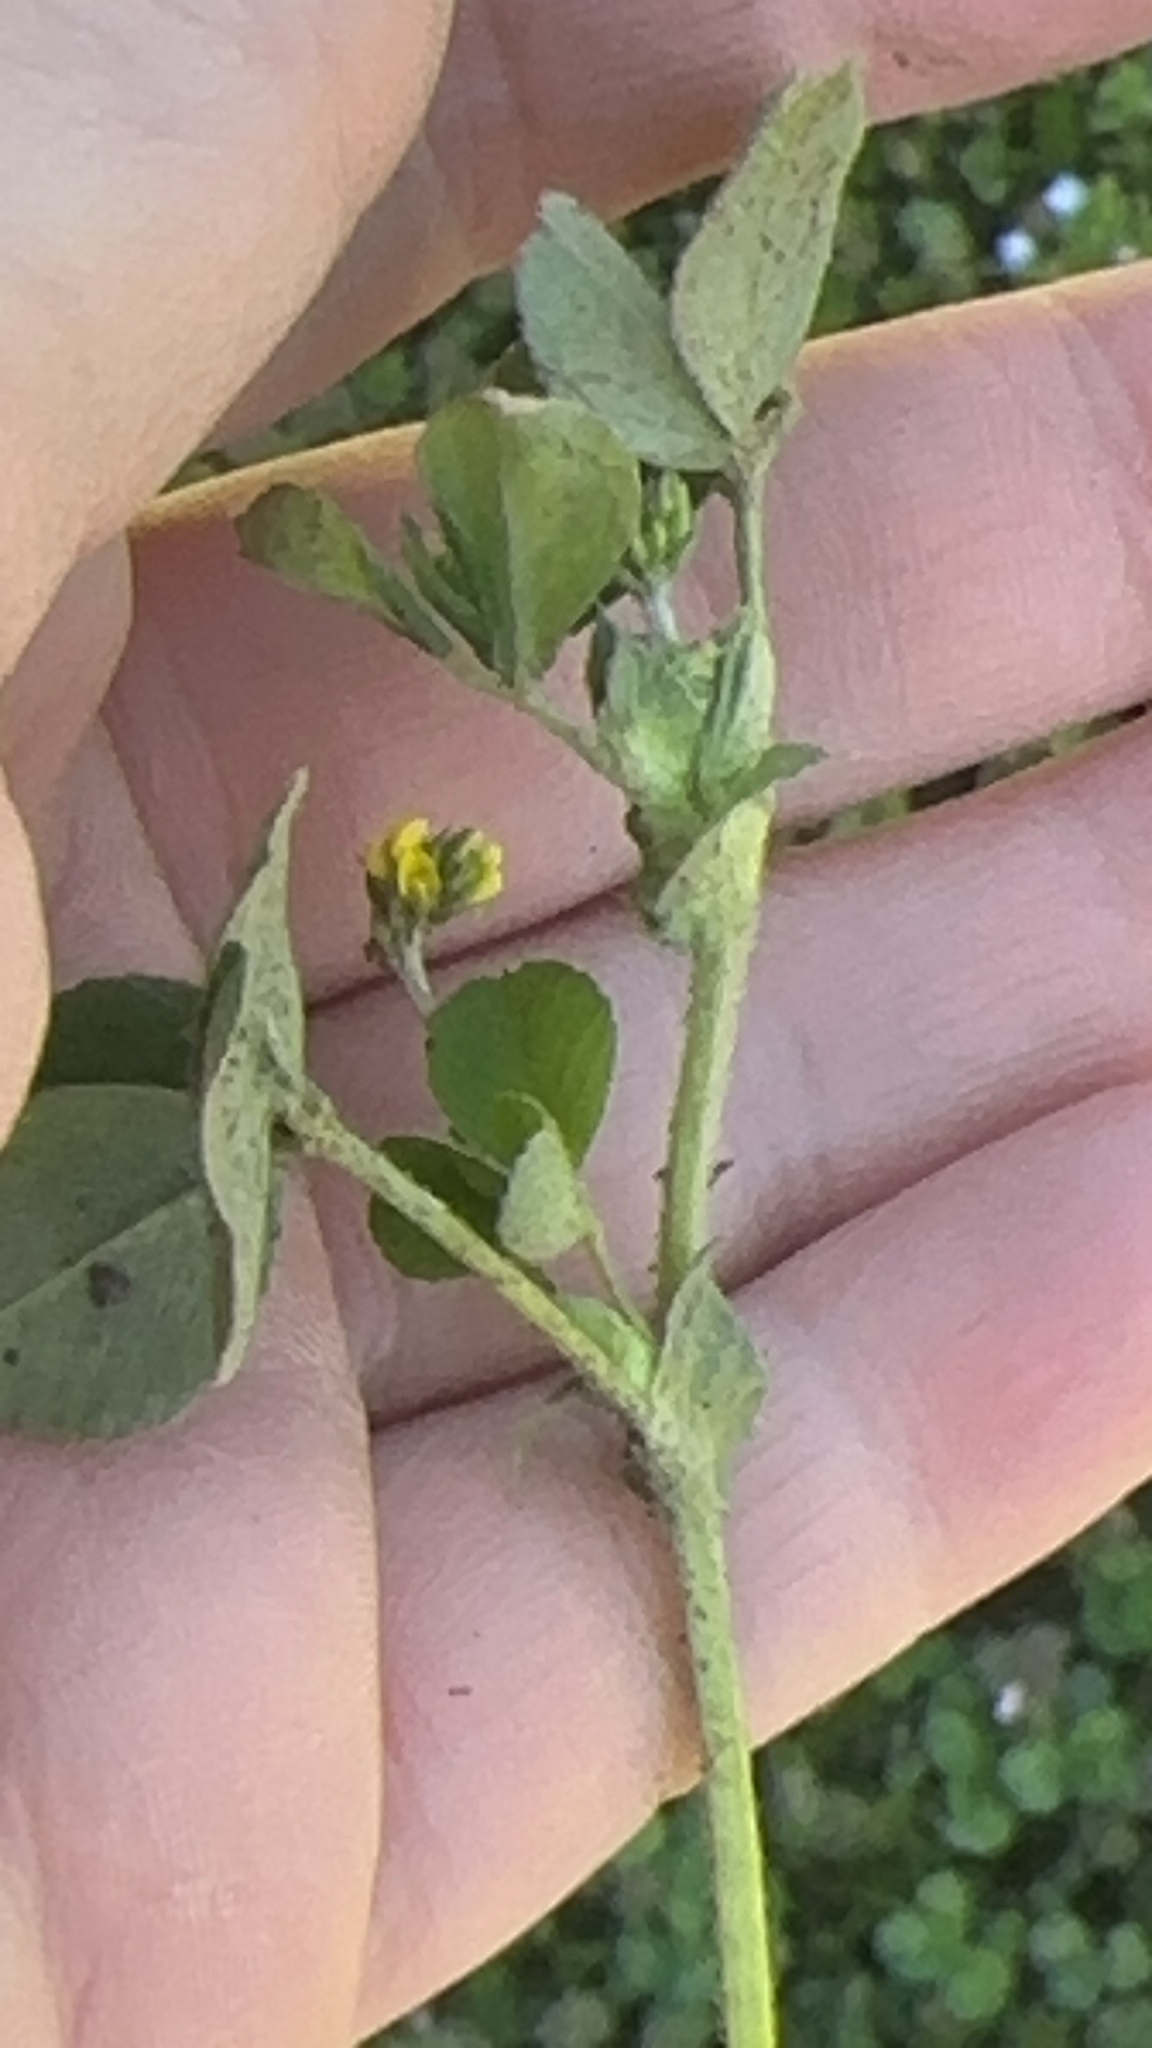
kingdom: Plantae
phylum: Tracheophyta
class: Magnoliopsida
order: Fabales
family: Fabaceae
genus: Medicago
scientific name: Medicago lupulina
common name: Black medick
